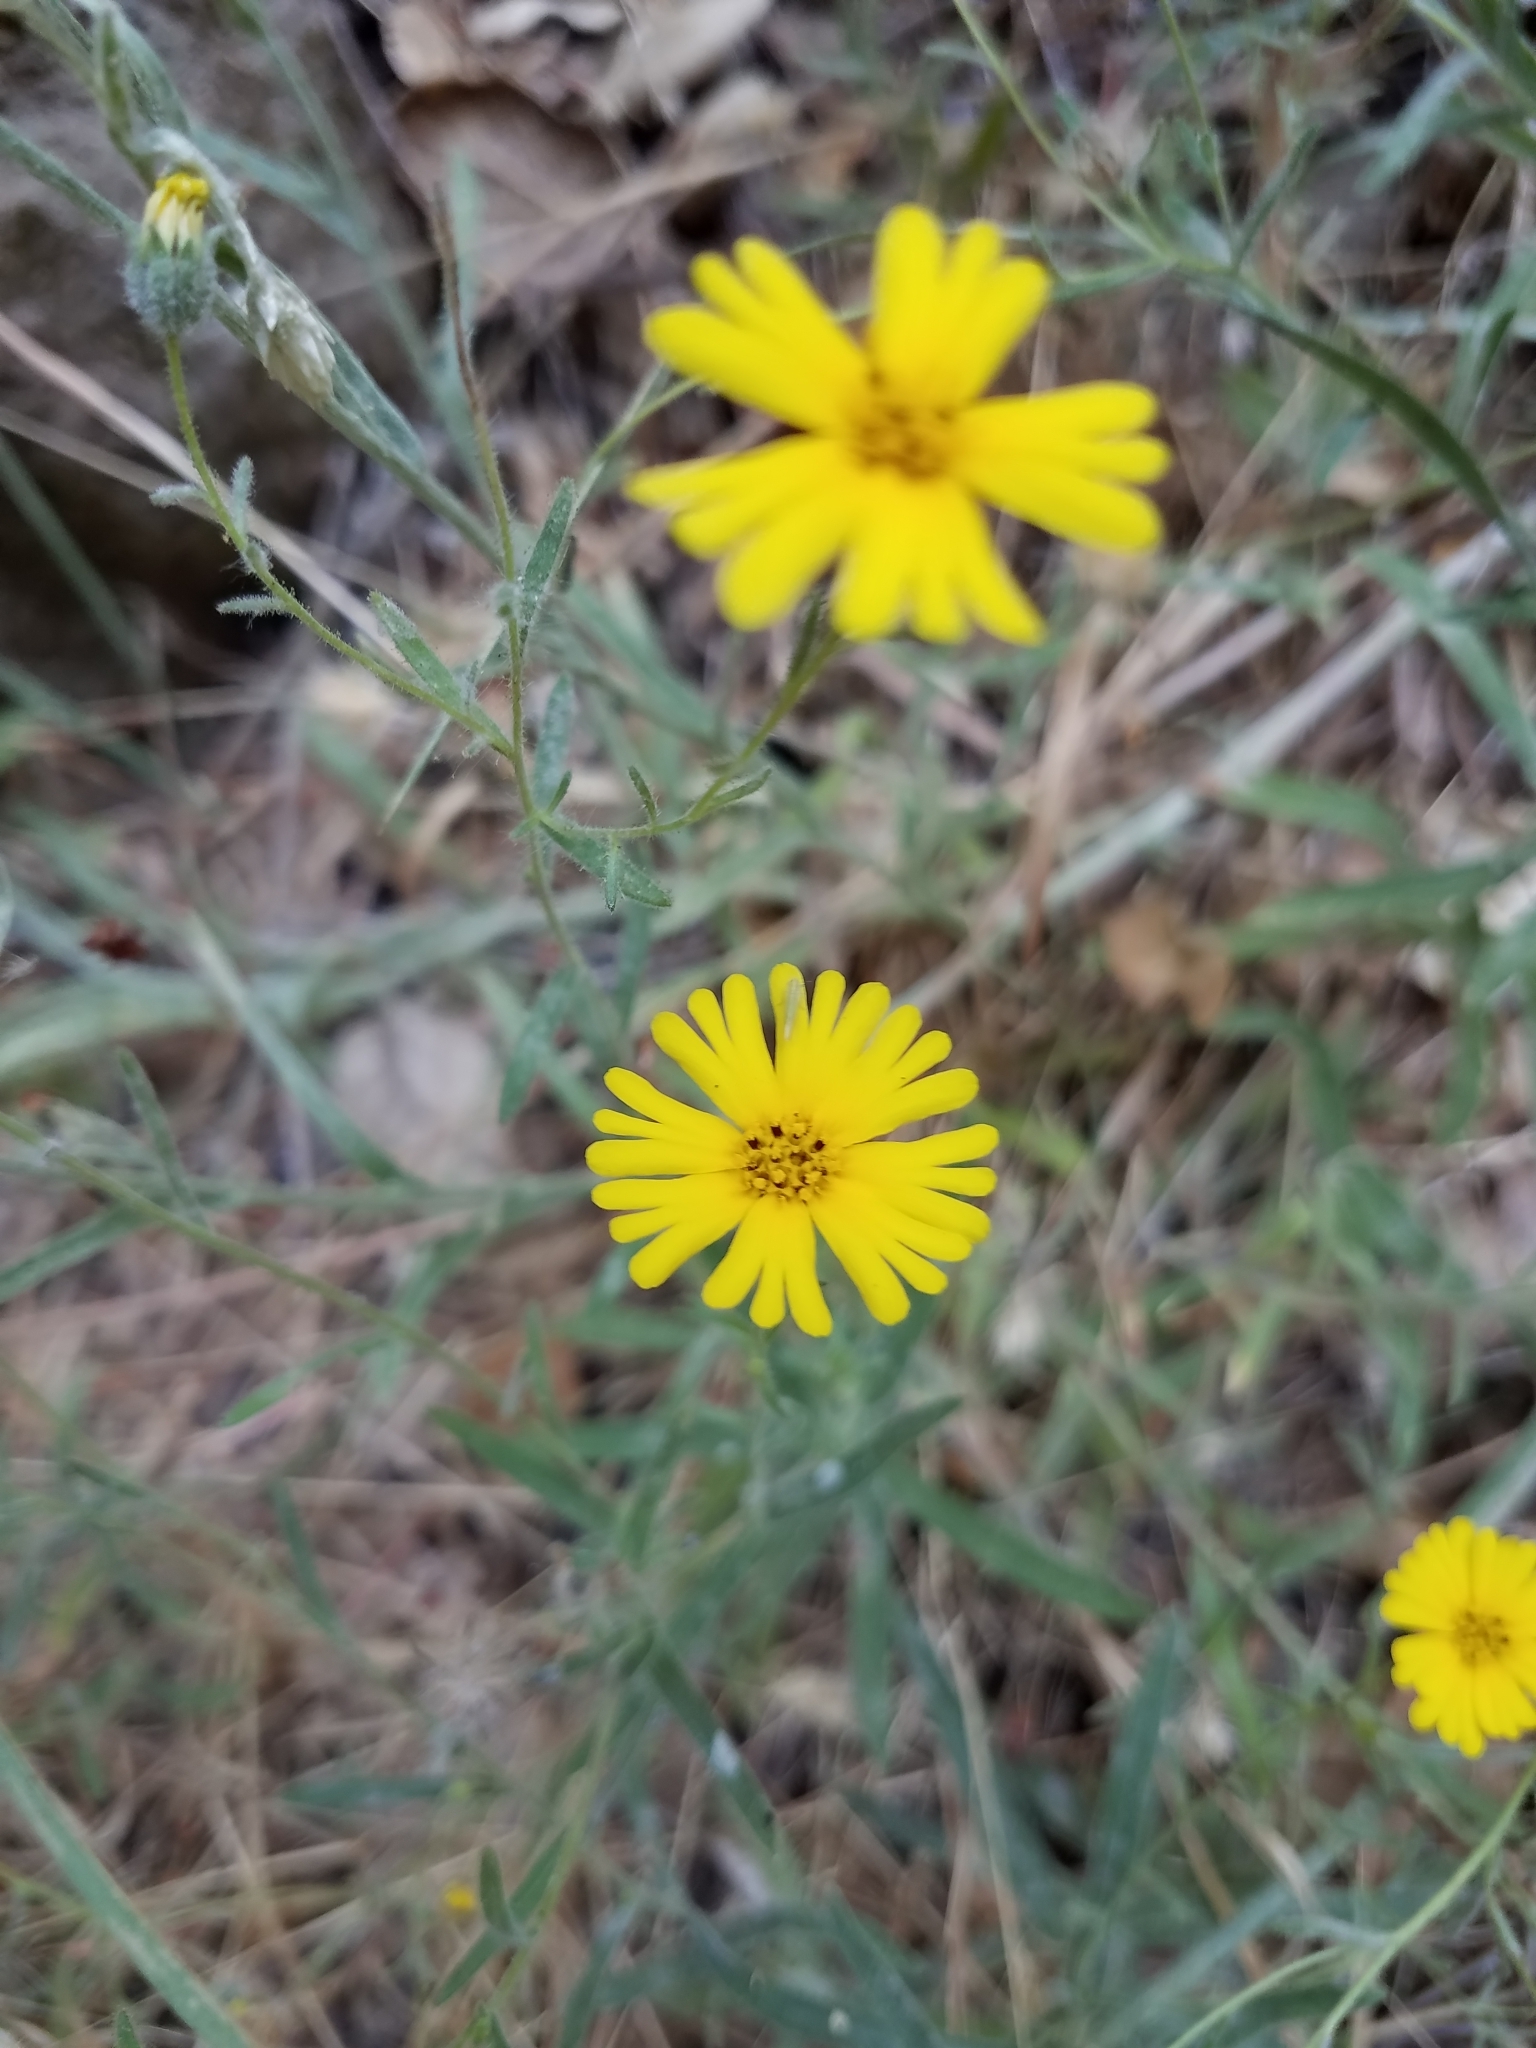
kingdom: Plantae
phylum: Tracheophyta
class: Magnoliopsida
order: Asterales
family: Asteraceae
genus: Madia
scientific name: Madia elegans
